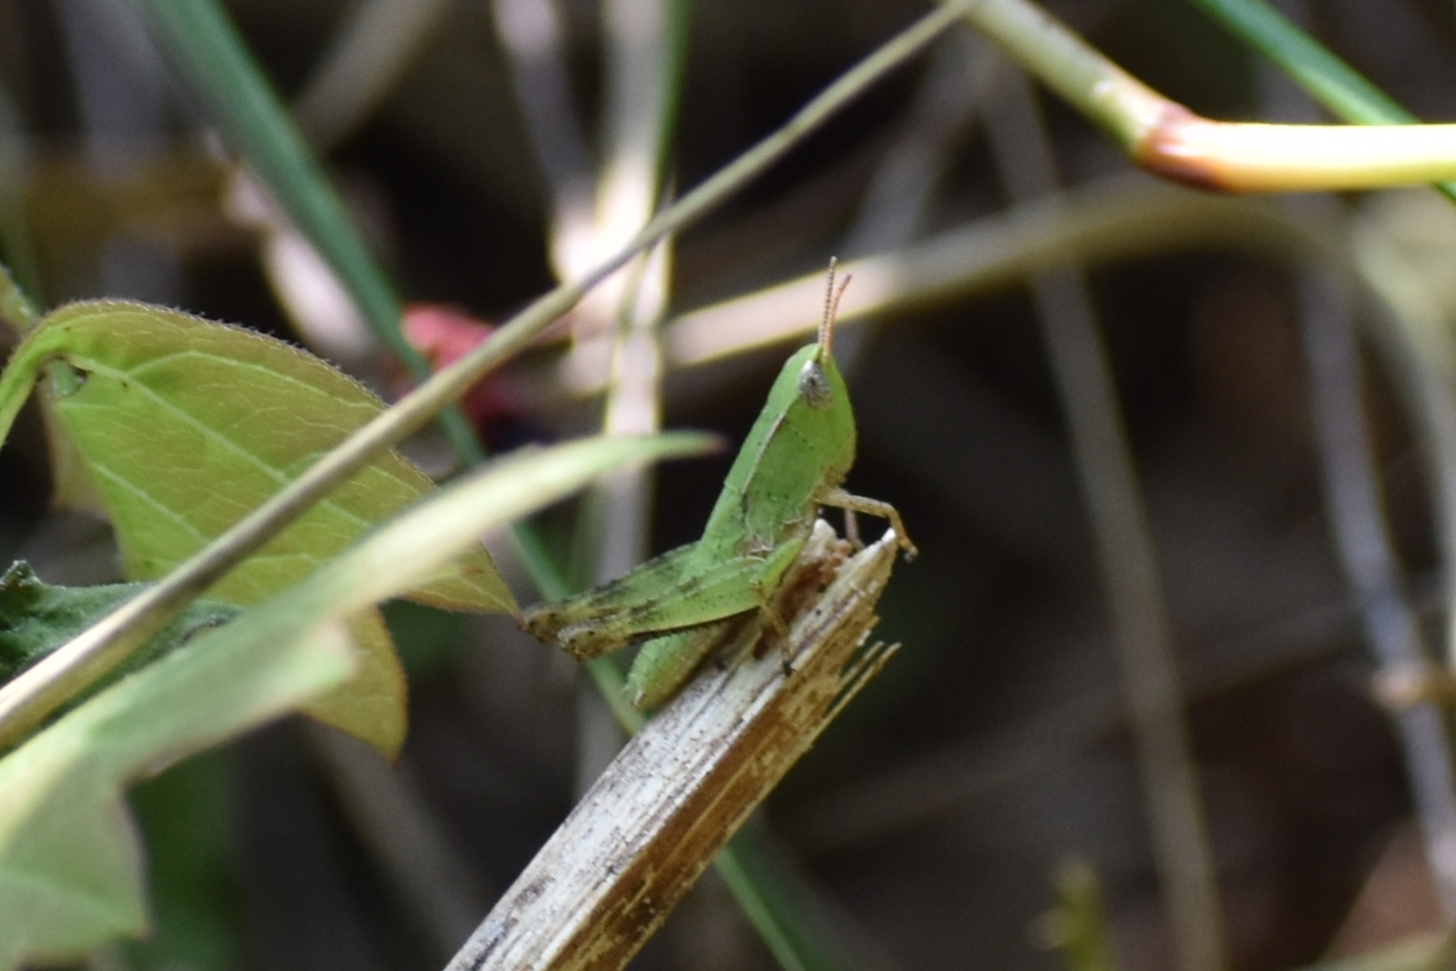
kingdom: Animalia
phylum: Arthropoda
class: Insecta
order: Orthoptera
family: Acrididae
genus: Dichromorpha
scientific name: Dichromorpha viridis
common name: Short-winged green grasshopper
